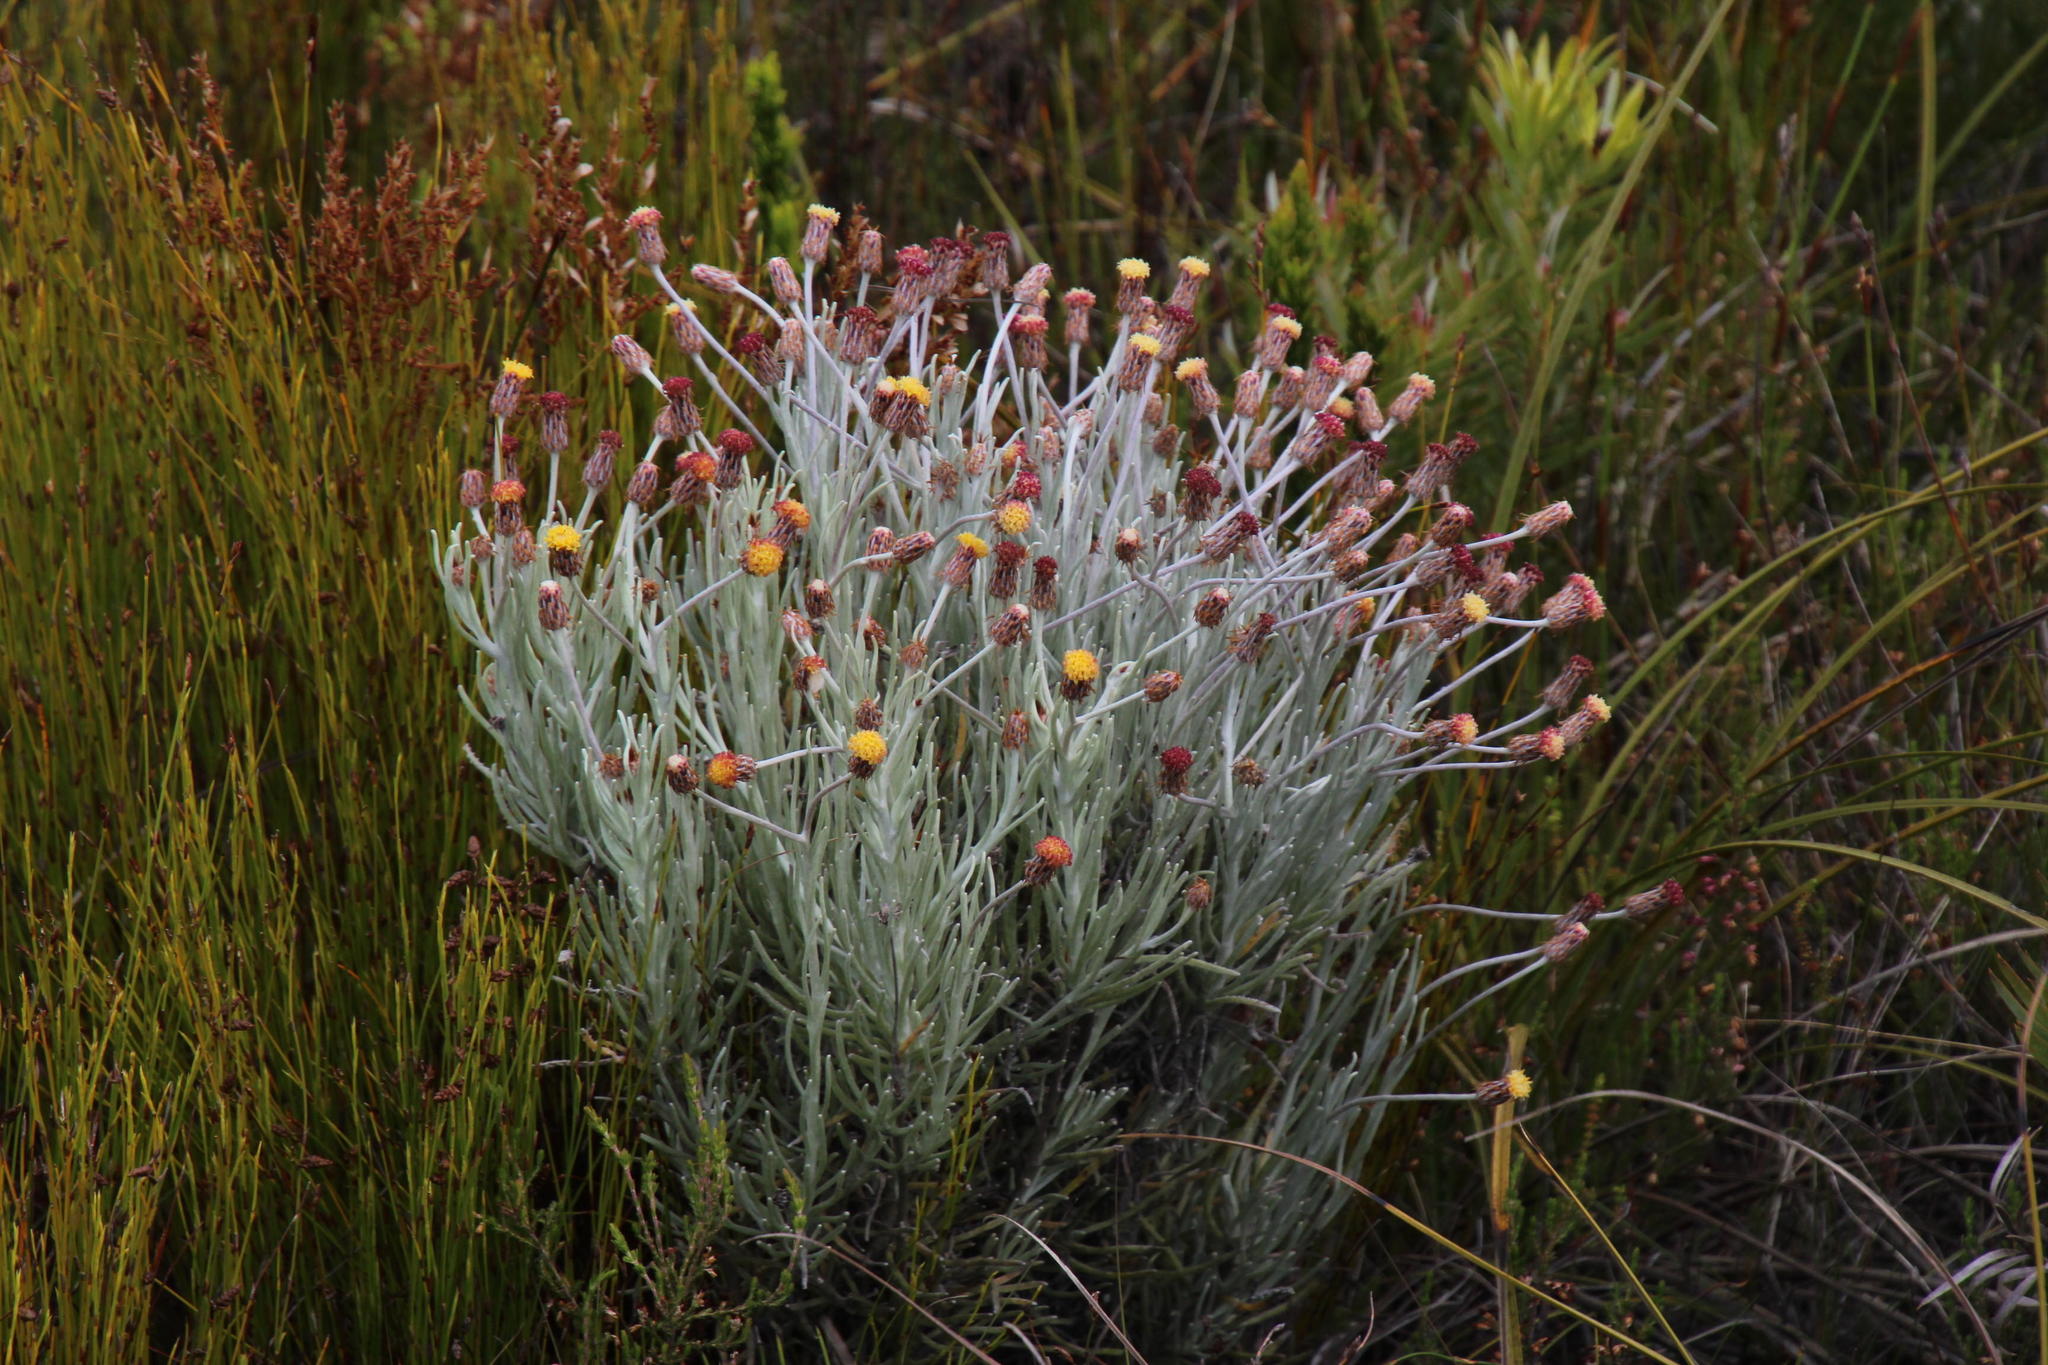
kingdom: Plantae
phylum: Tracheophyta
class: Magnoliopsida
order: Asterales
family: Asteraceae
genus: Syncarpha
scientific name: Syncarpha gnaphaloides
